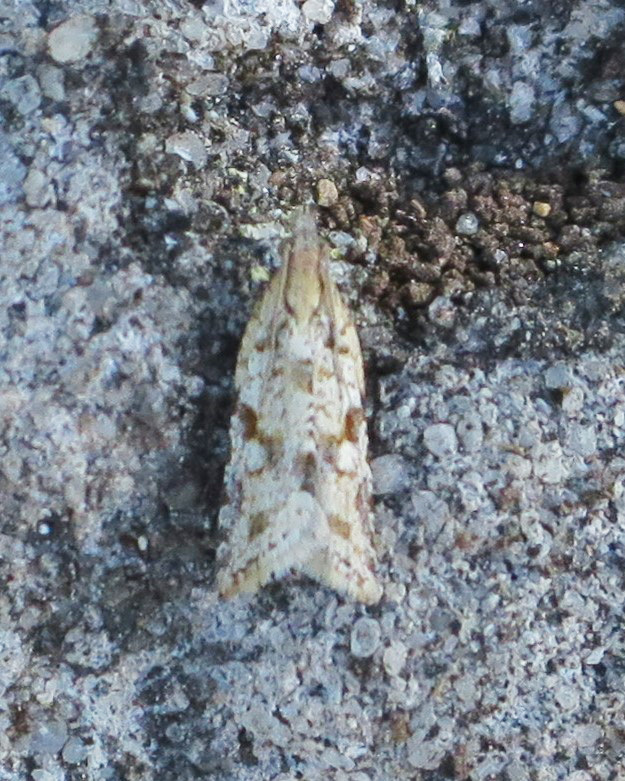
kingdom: Animalia
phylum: Arthropoda
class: Insecta
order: Lepidoptera
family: Tortricidae
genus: Capua
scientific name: Capua semiferana
